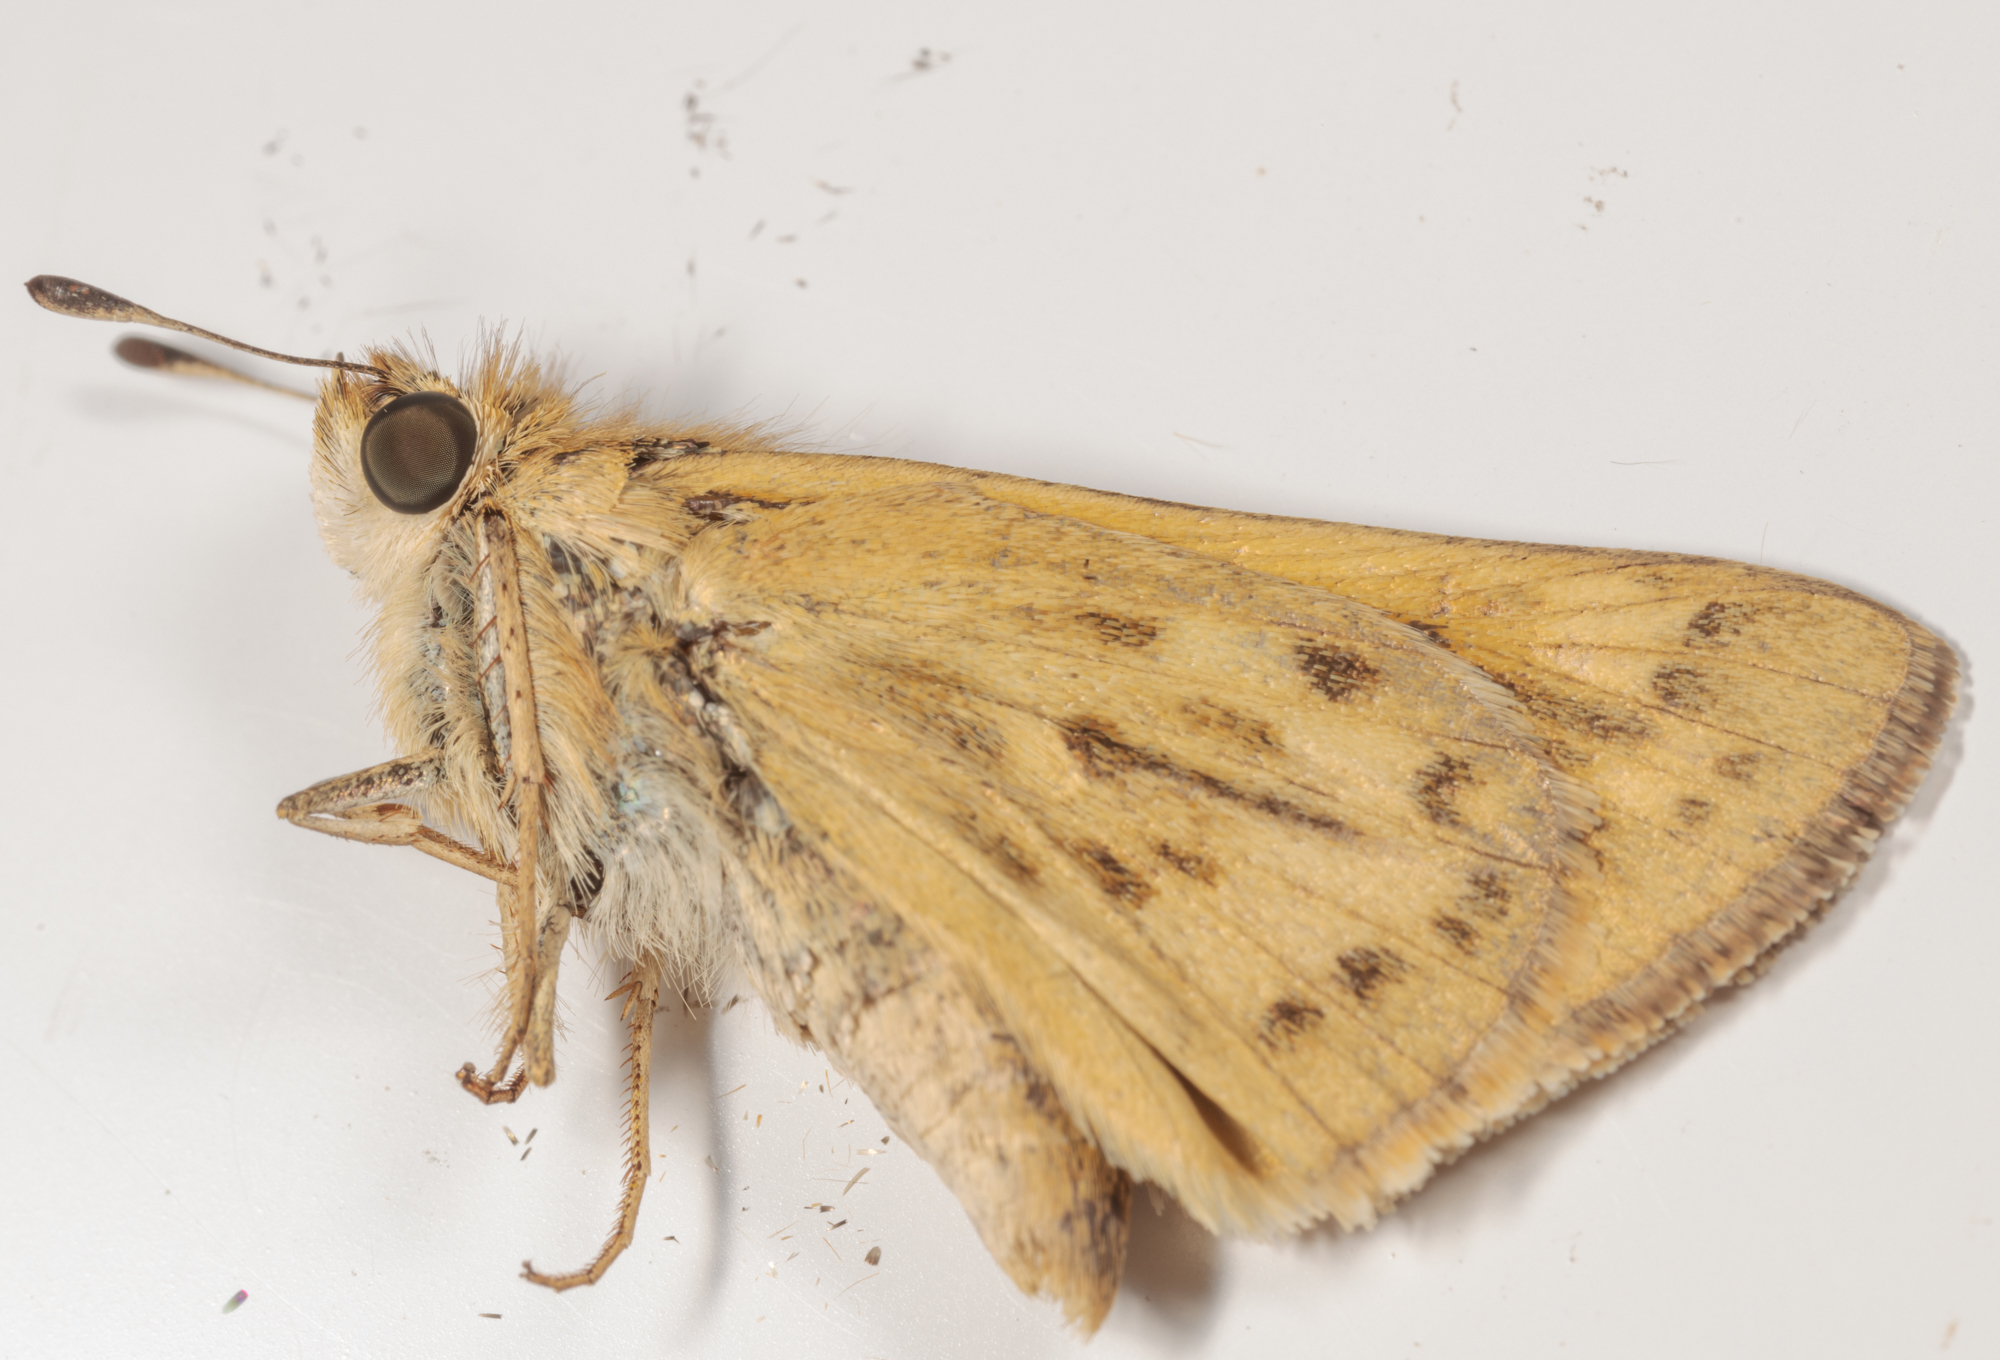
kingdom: Animalia
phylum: Arthropoda
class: Insecta
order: Lepidoptera
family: Hesperiidae
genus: Hylephila
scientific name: Hylephila phyleus
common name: Fiery skipper
